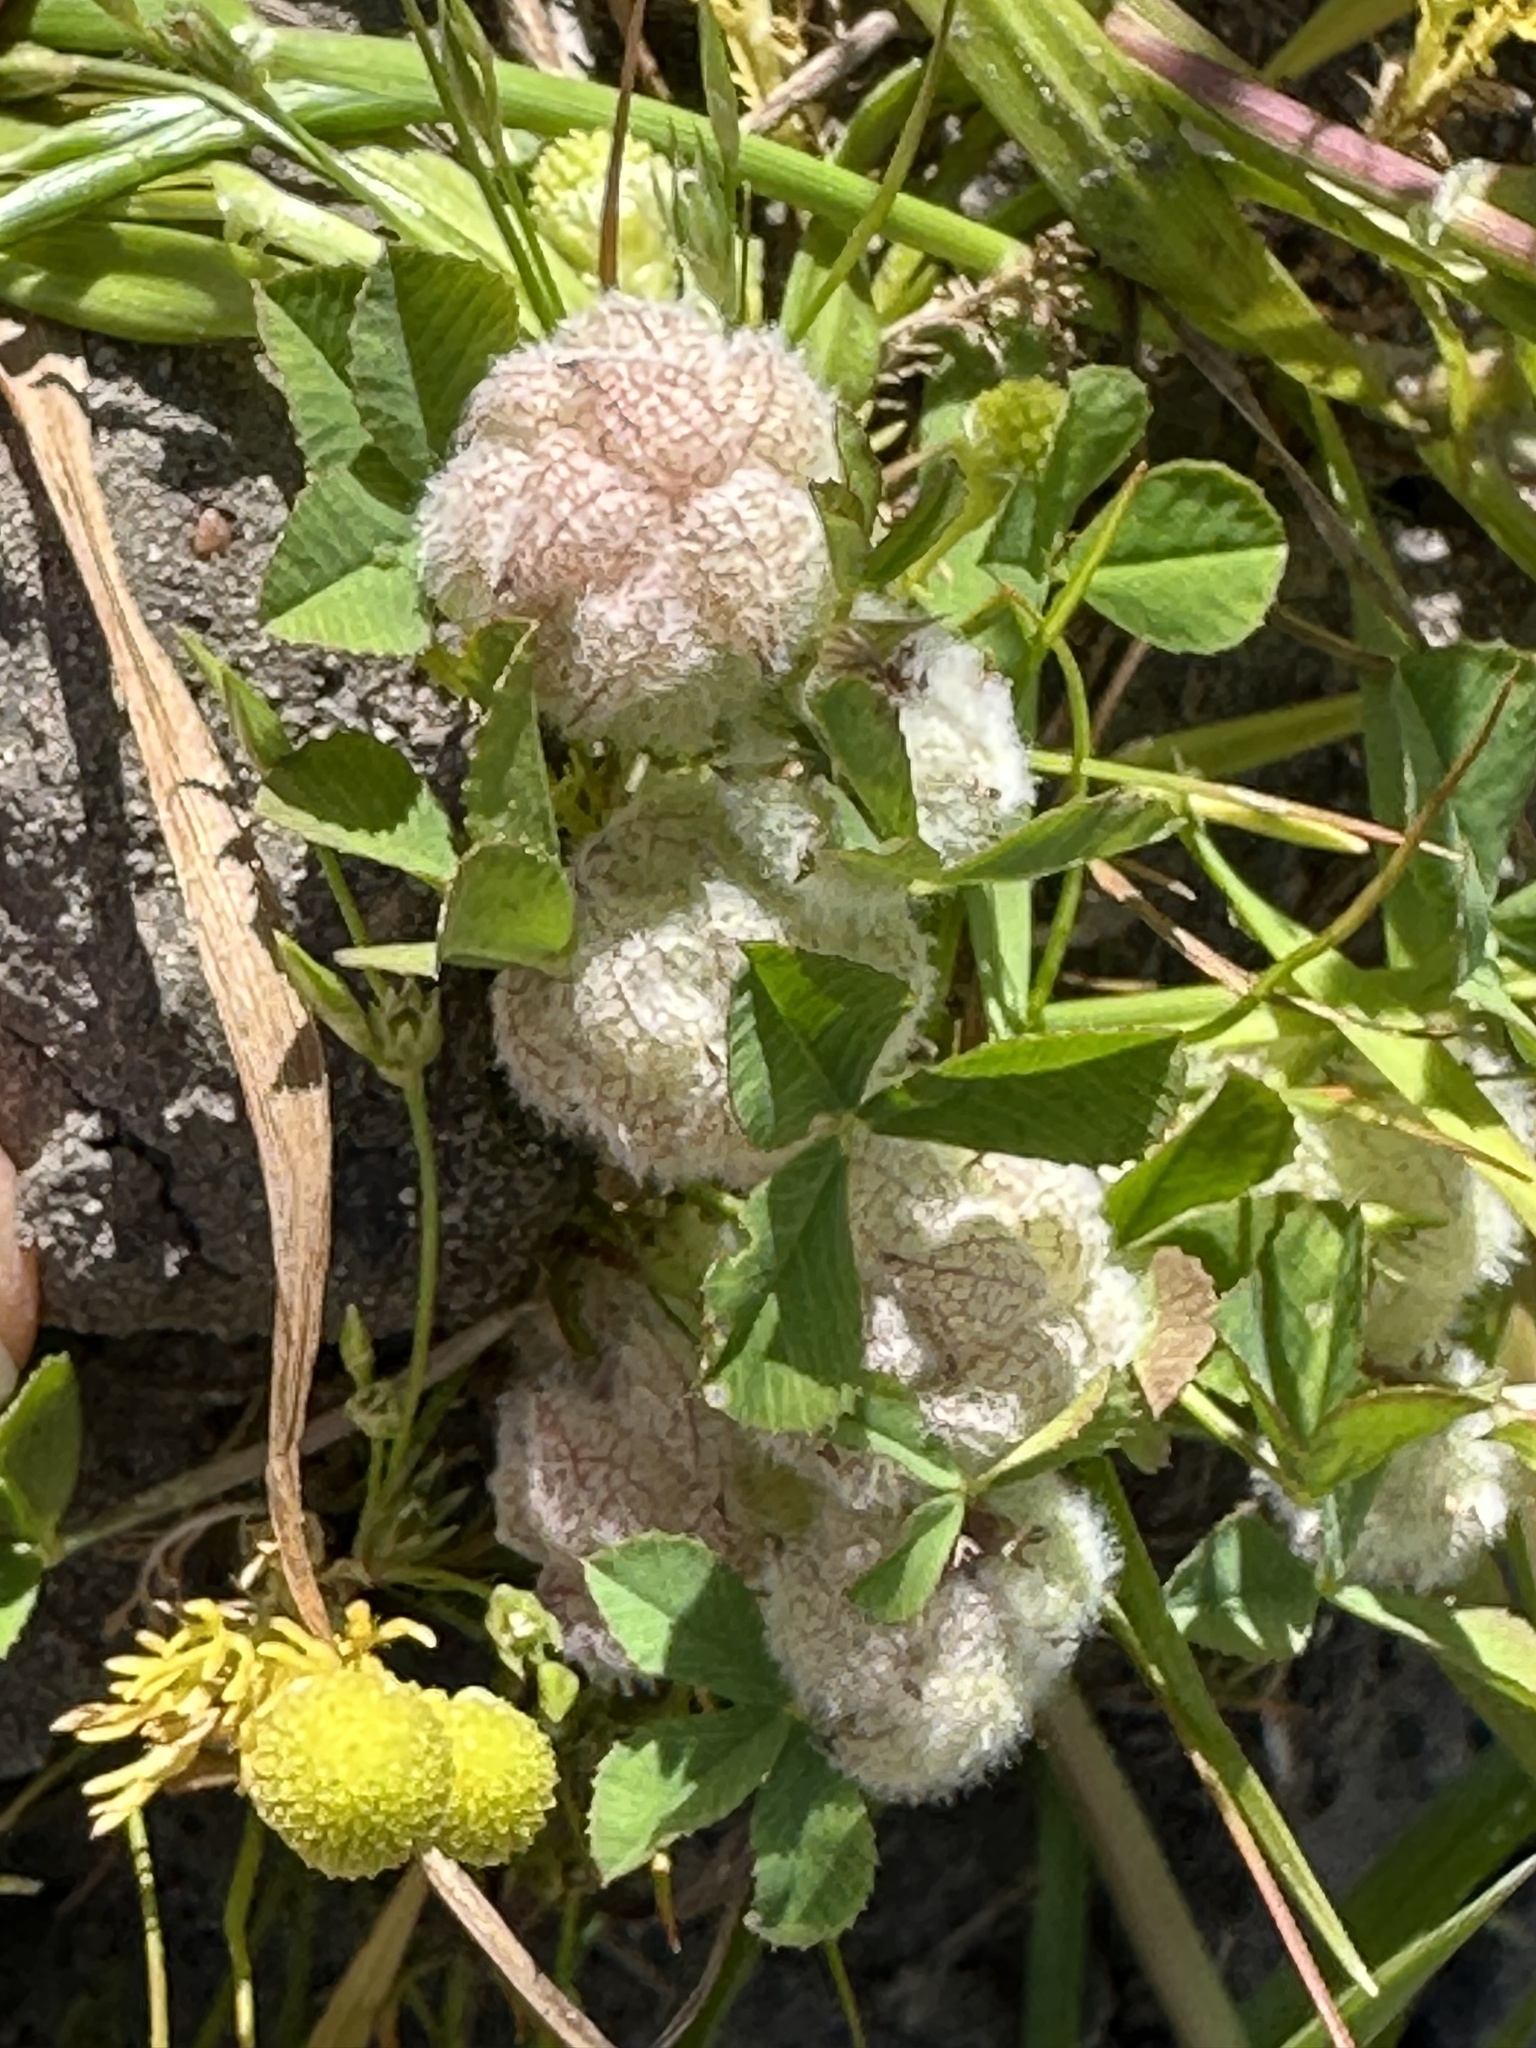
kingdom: Plantae
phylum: Tracheophyta
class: Magnoliopsida
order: Fabales
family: Fabaceae
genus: Trifolium
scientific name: Trifolium tomentosum
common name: Woolly clover
